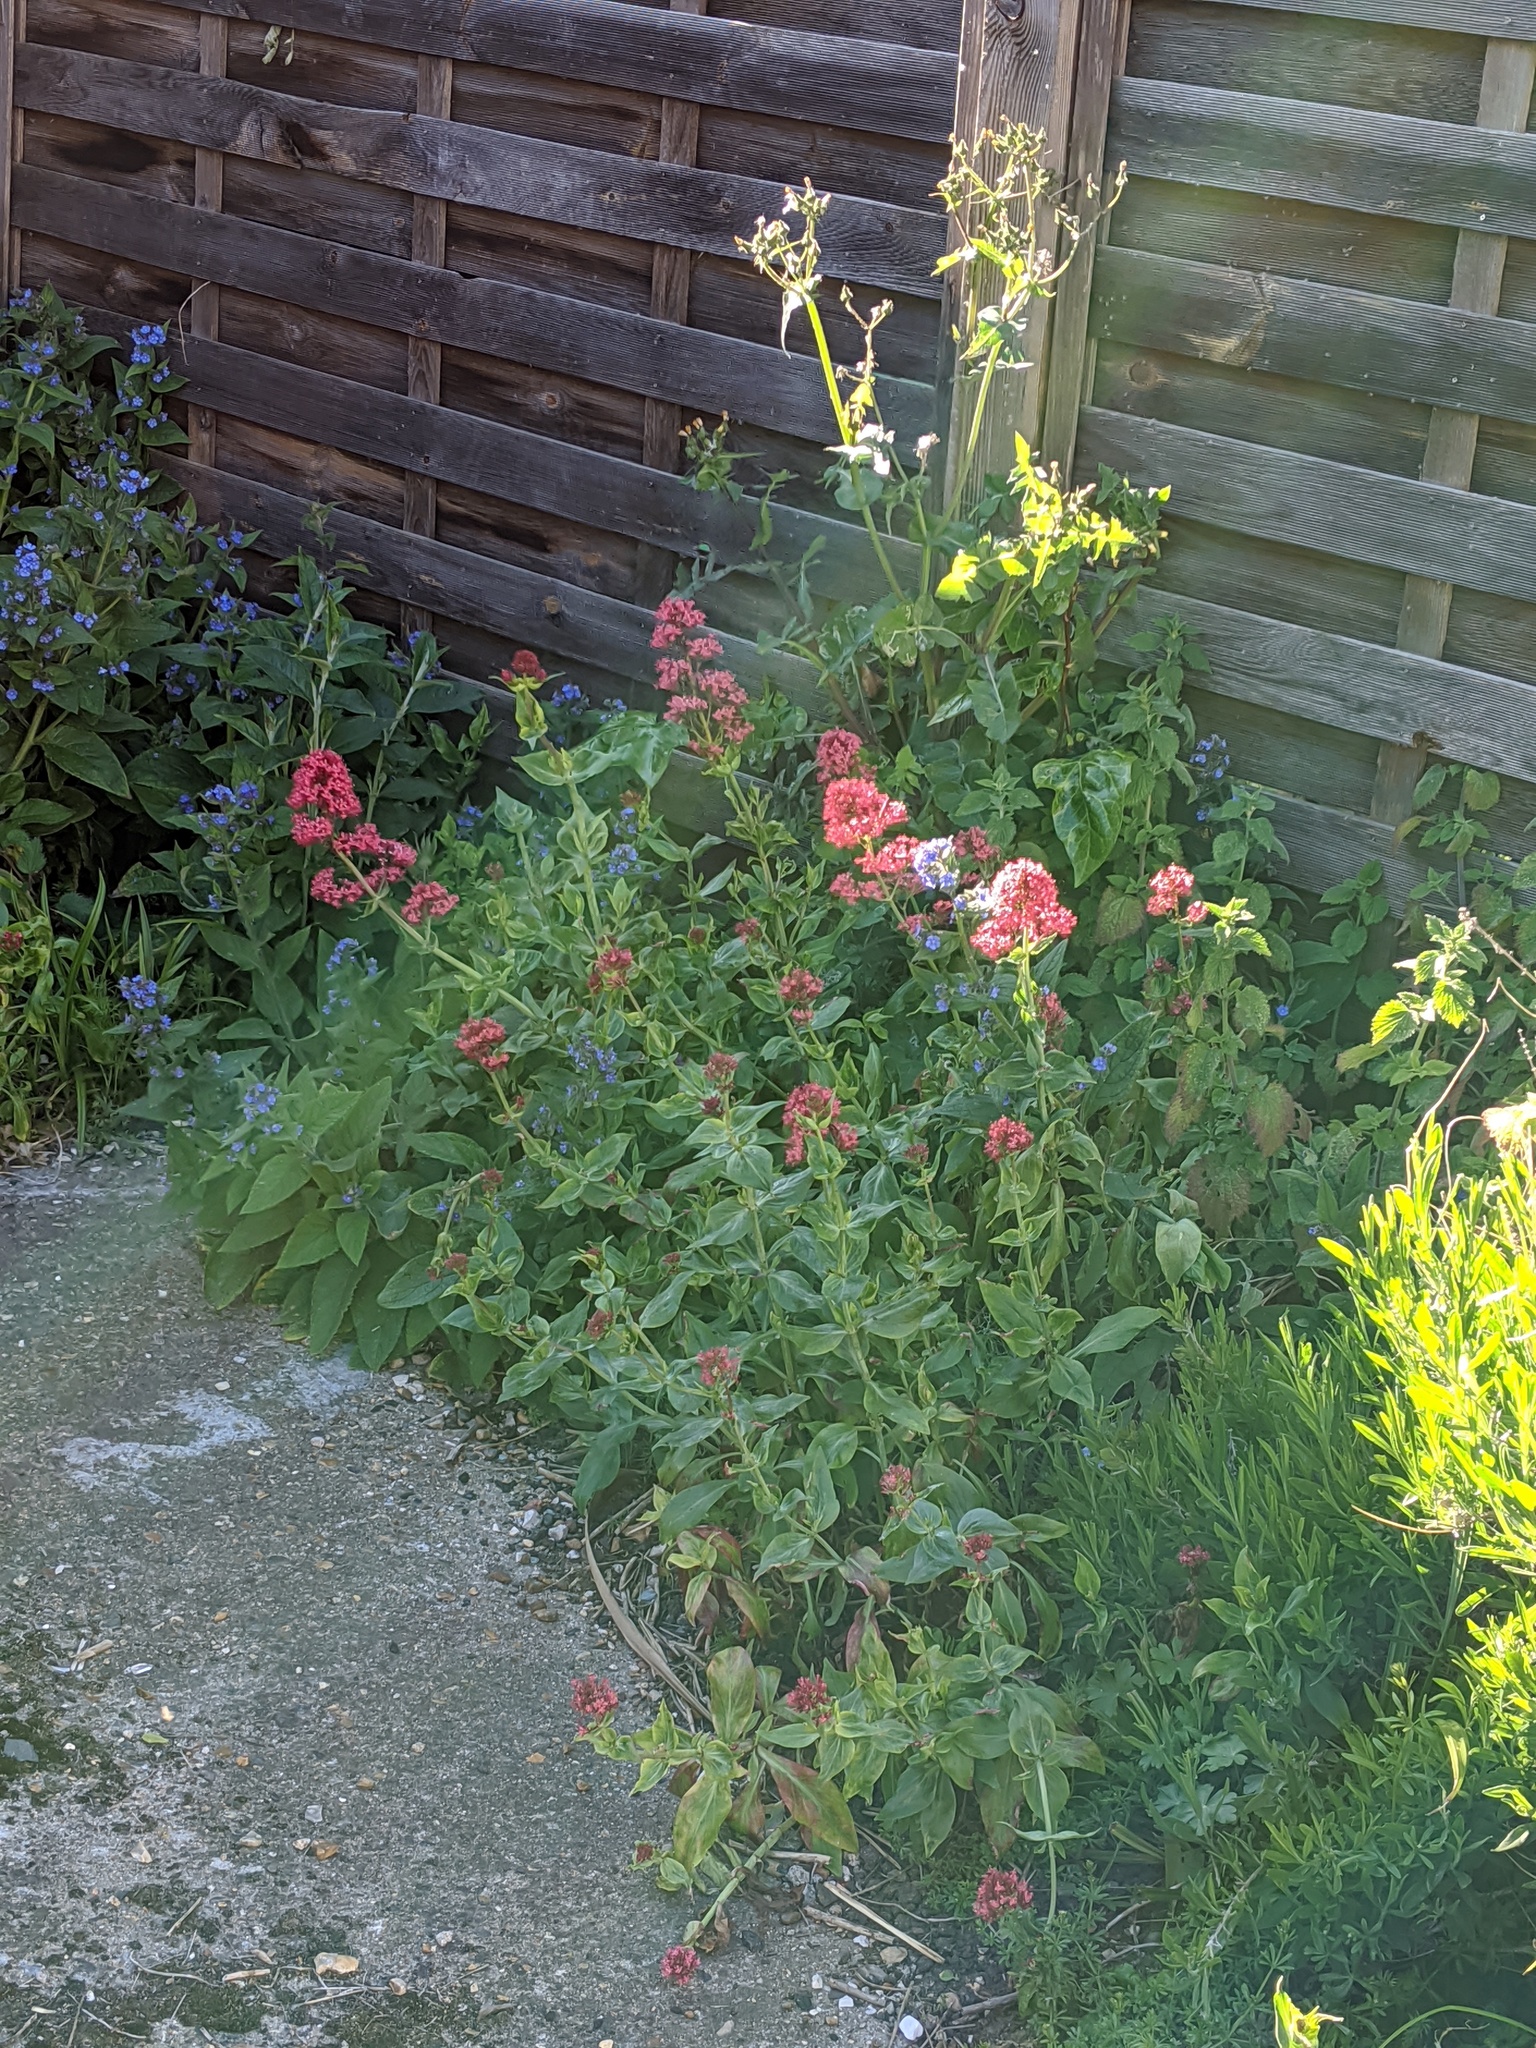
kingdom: Plantae
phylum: Tracheophyta
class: Magnoliopsida
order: Dipsacales
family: Caprifoliaceae
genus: Centranthus
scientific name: Centranthus ruber
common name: Red valerian
